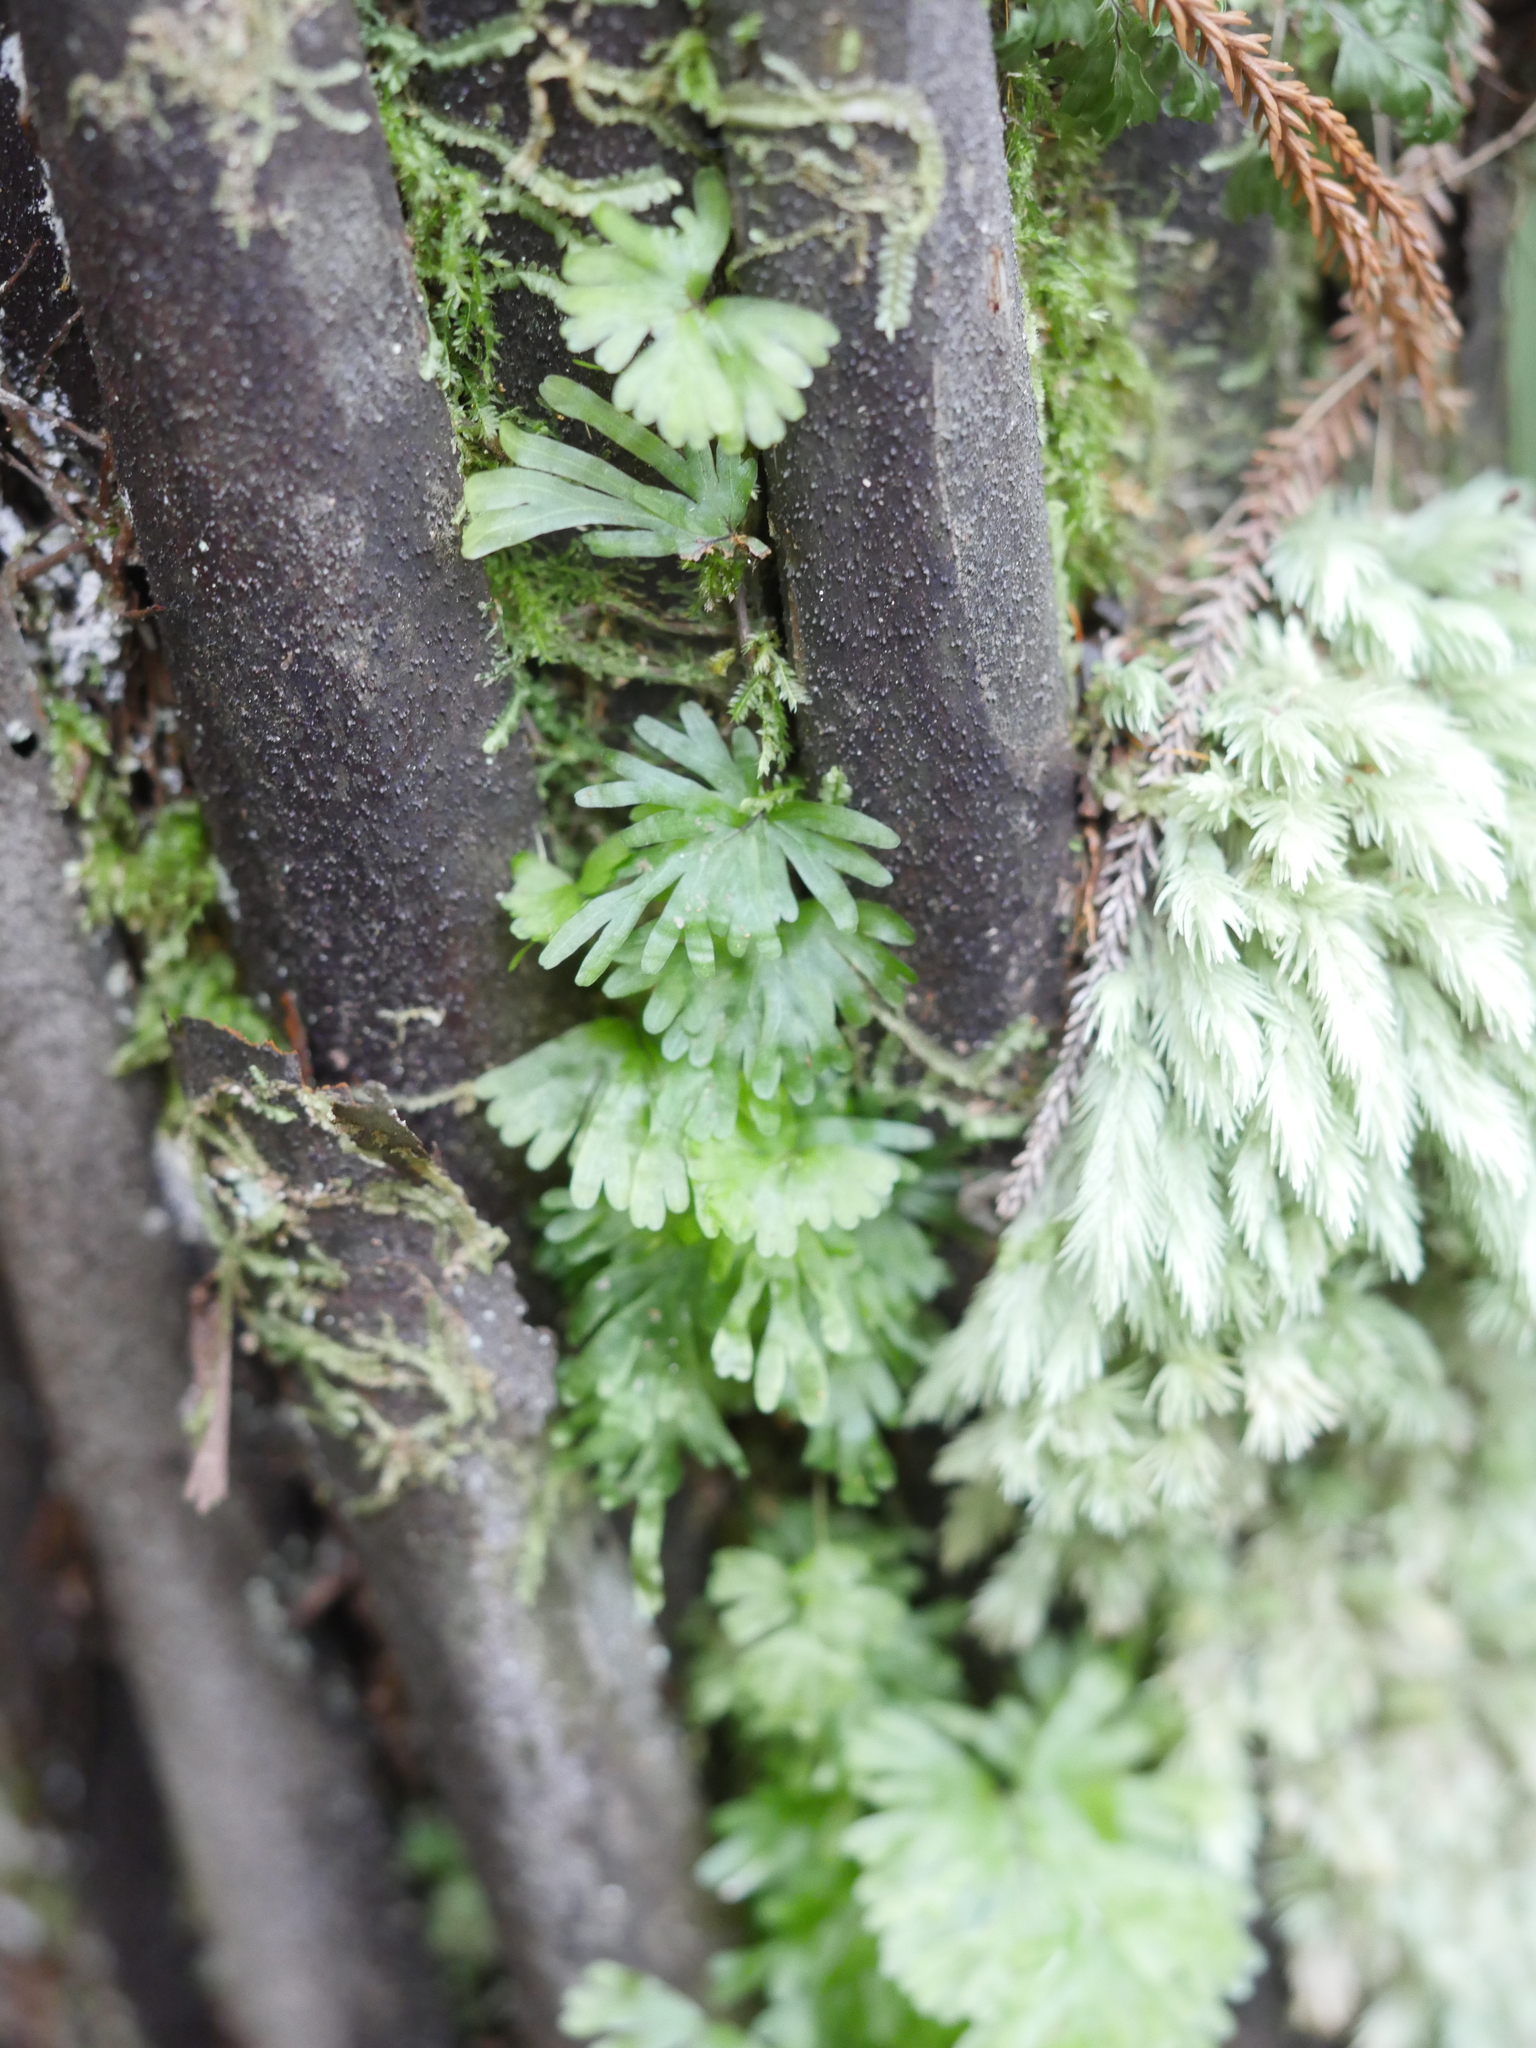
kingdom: Plantae
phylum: Tracheophyta
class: Polypodiopsida
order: Hymenophyllales
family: Hymenophyllaceae
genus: Hymenophyllum
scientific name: Hymenophyllum flabellatum
